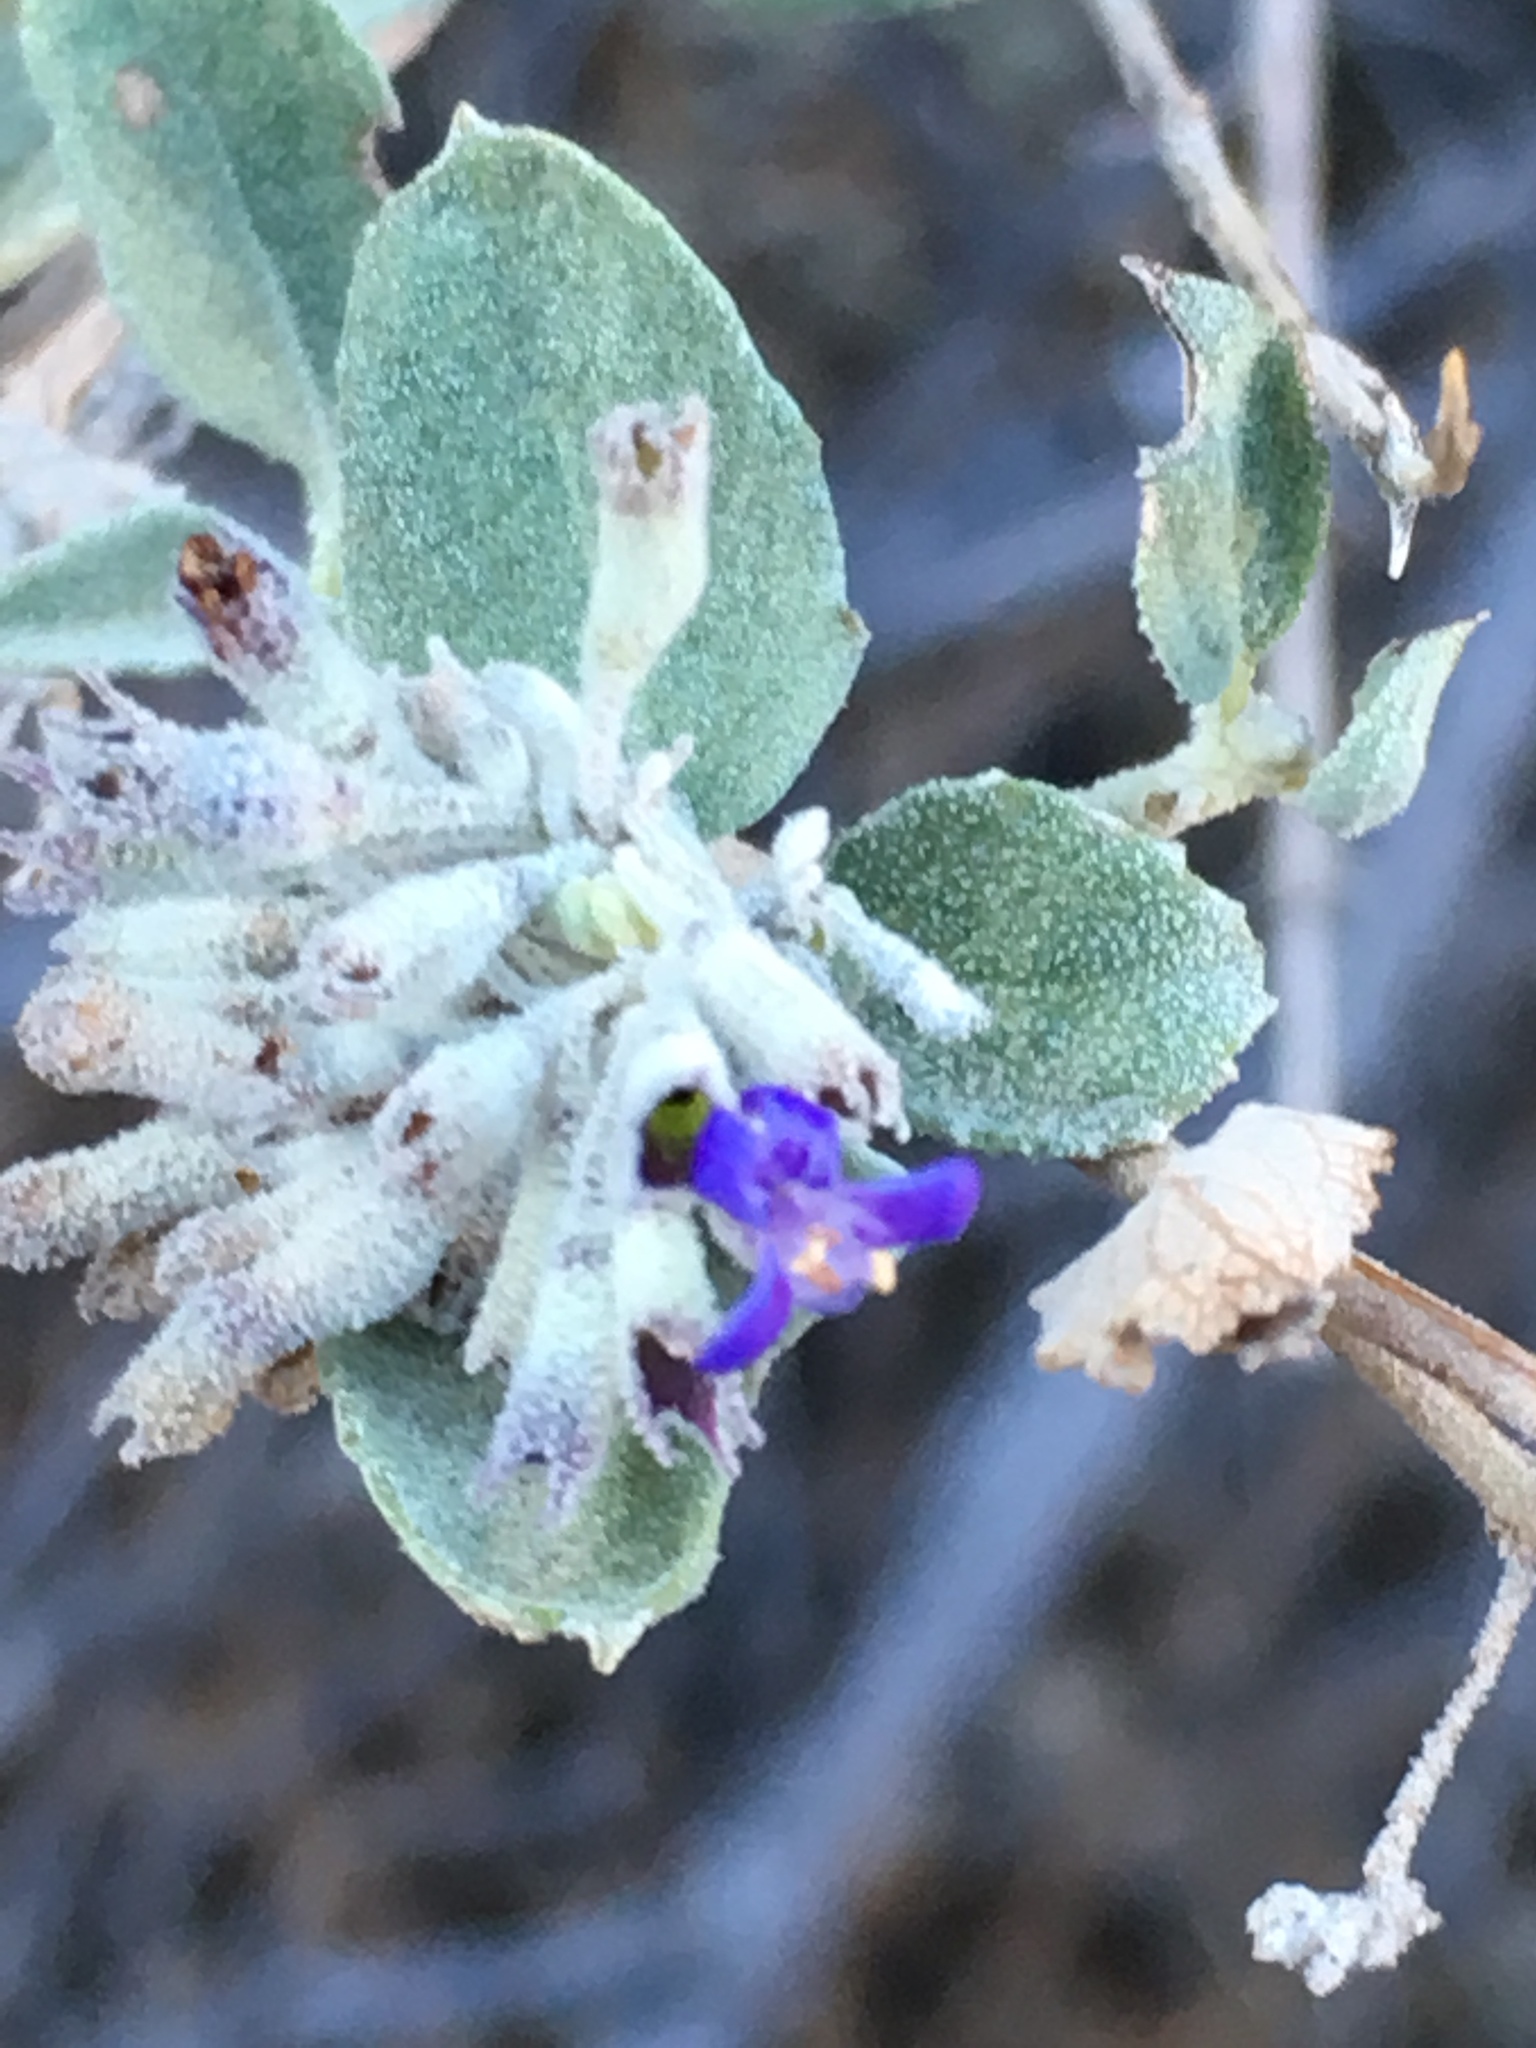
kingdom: Plantae
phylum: Tracheophyta
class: Magnoliopsida
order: Lamiales
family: Lamiaceae
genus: Condea
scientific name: Condea emoryi
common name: Chia
